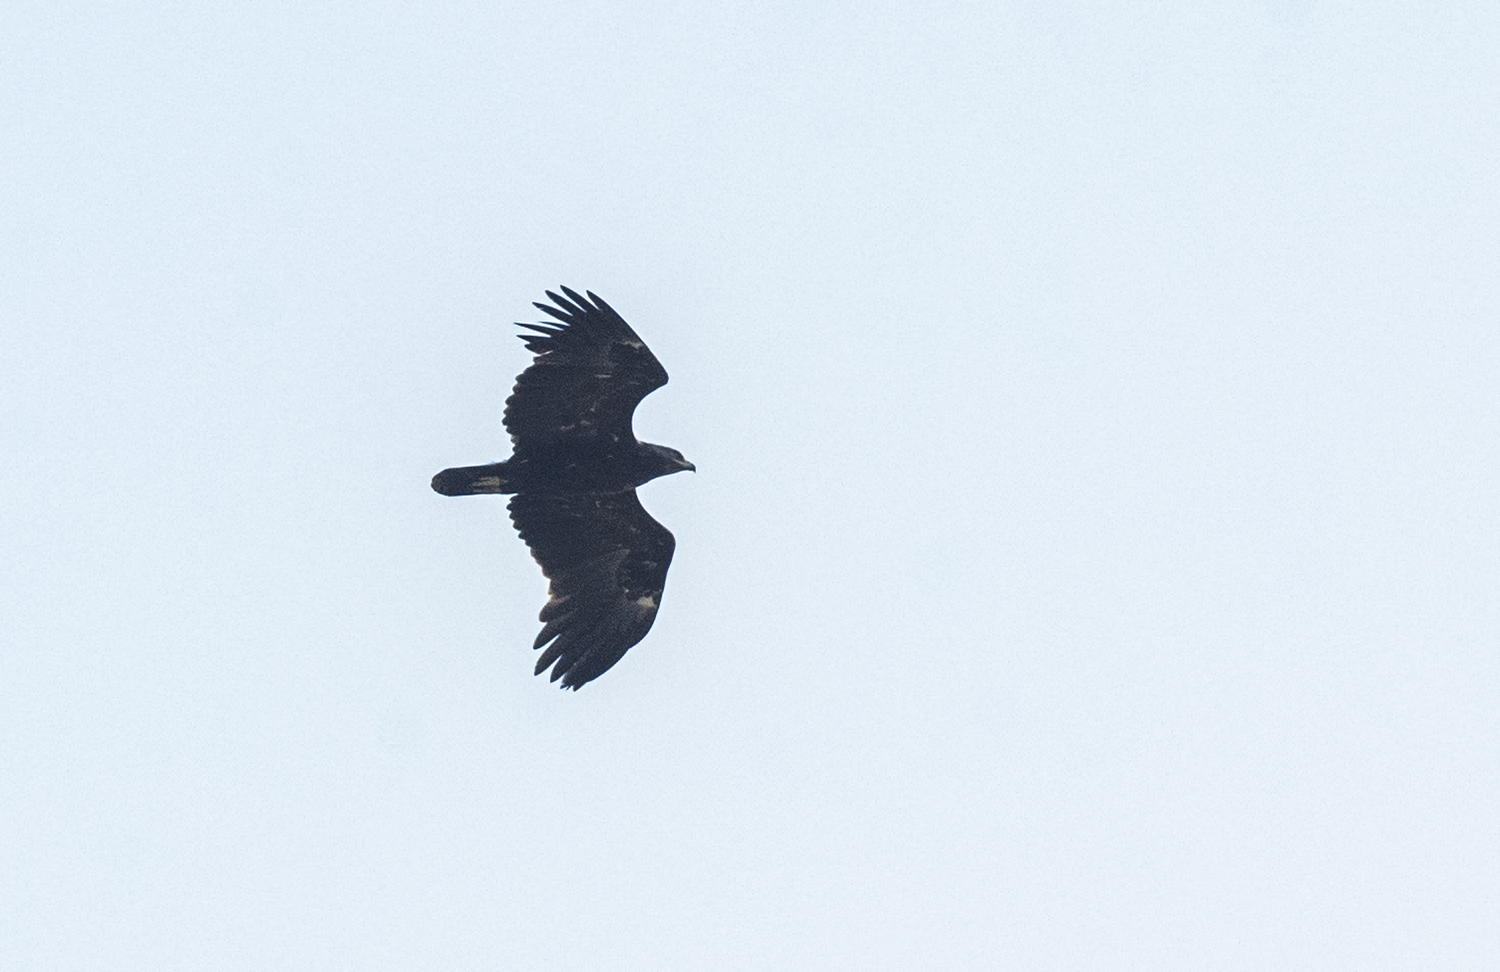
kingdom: Animalia
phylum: Chordata
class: Aves
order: Accipitriformes
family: Accipitridae
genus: Aquila
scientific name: Aquila clanga
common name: Greater spotted eagle
